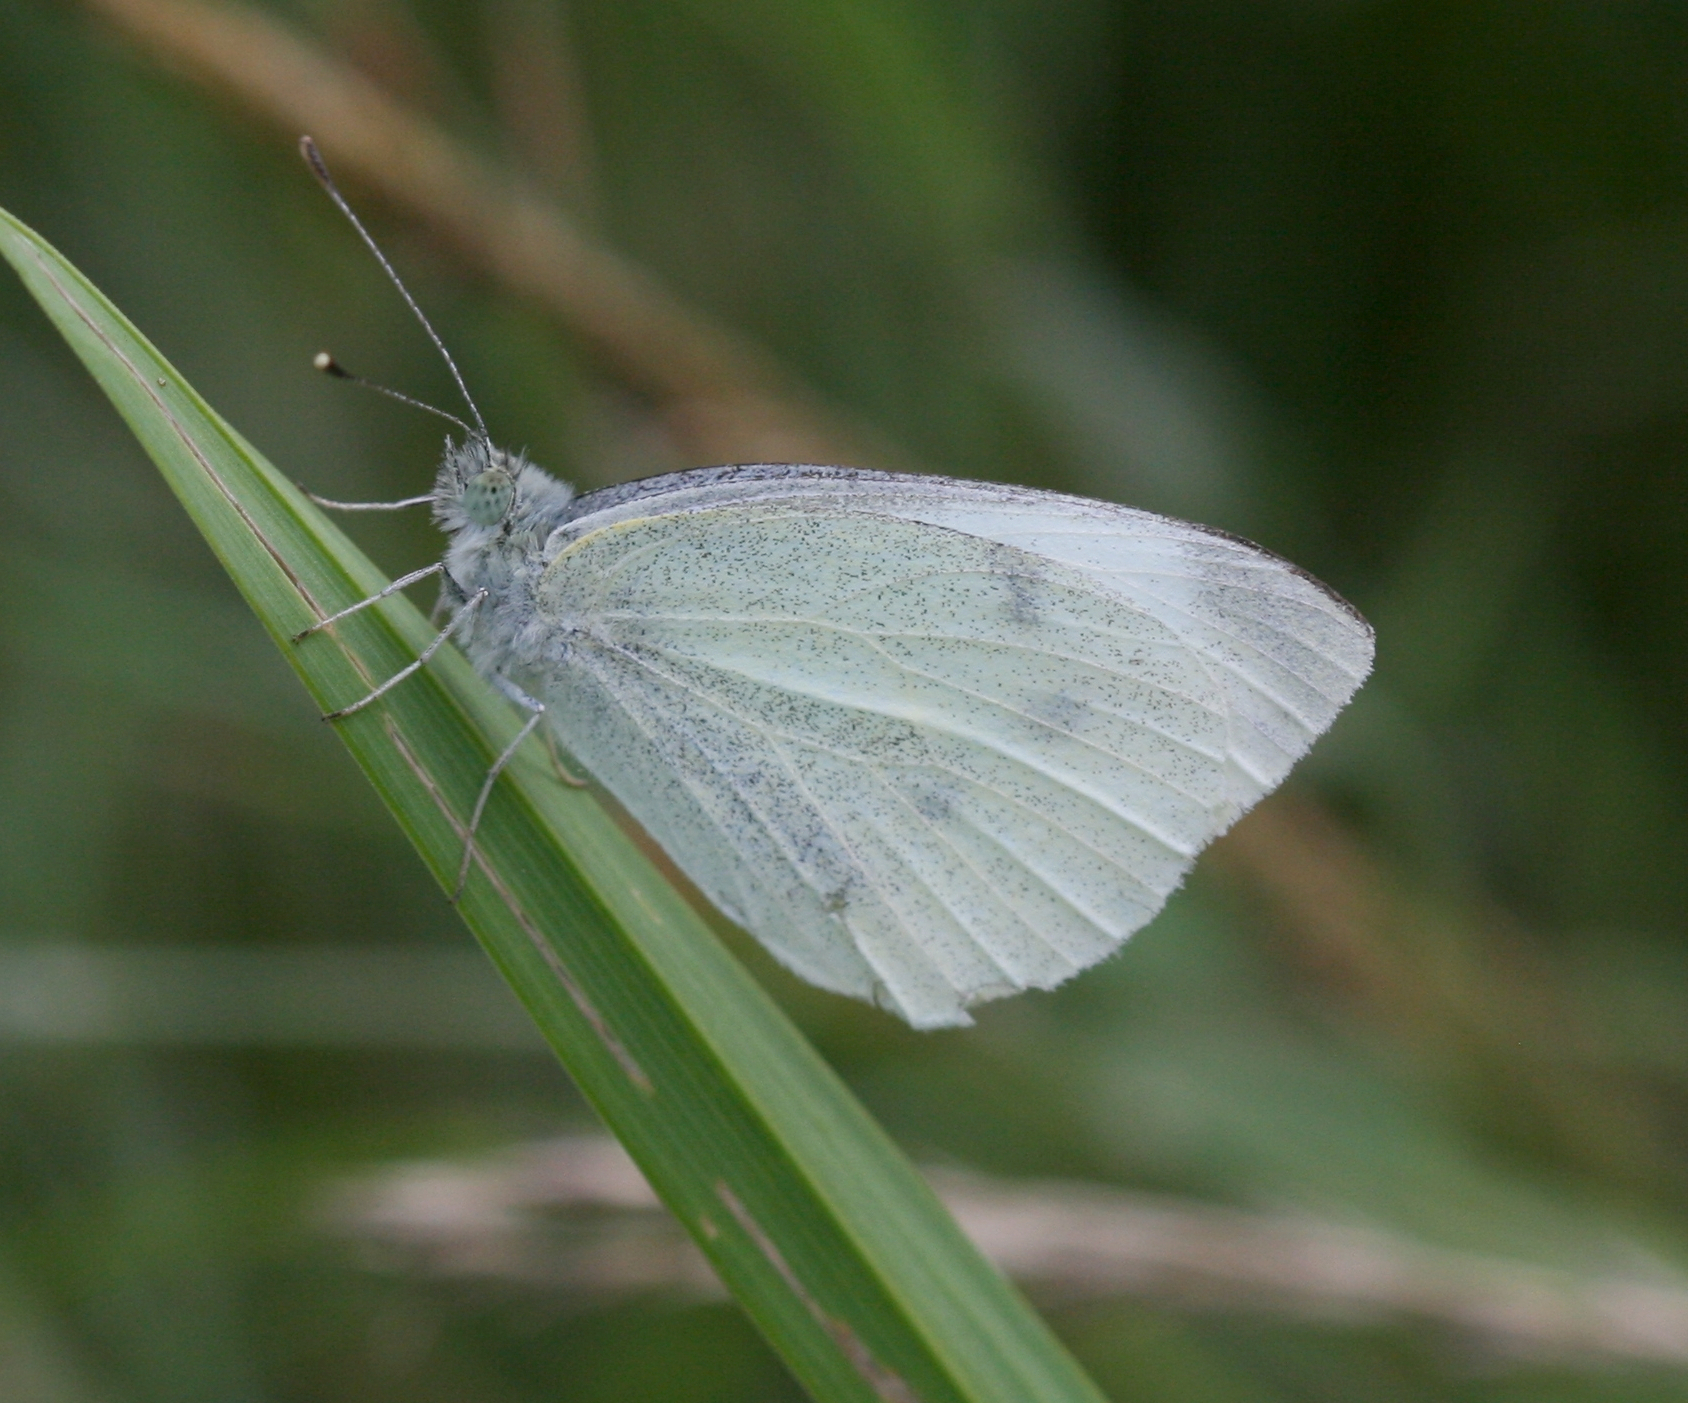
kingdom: Animalia
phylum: Arthropoda
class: Insecta
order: Lepidoptera
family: Pieridae
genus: Pieris
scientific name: Pieris rapae
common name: Small white
